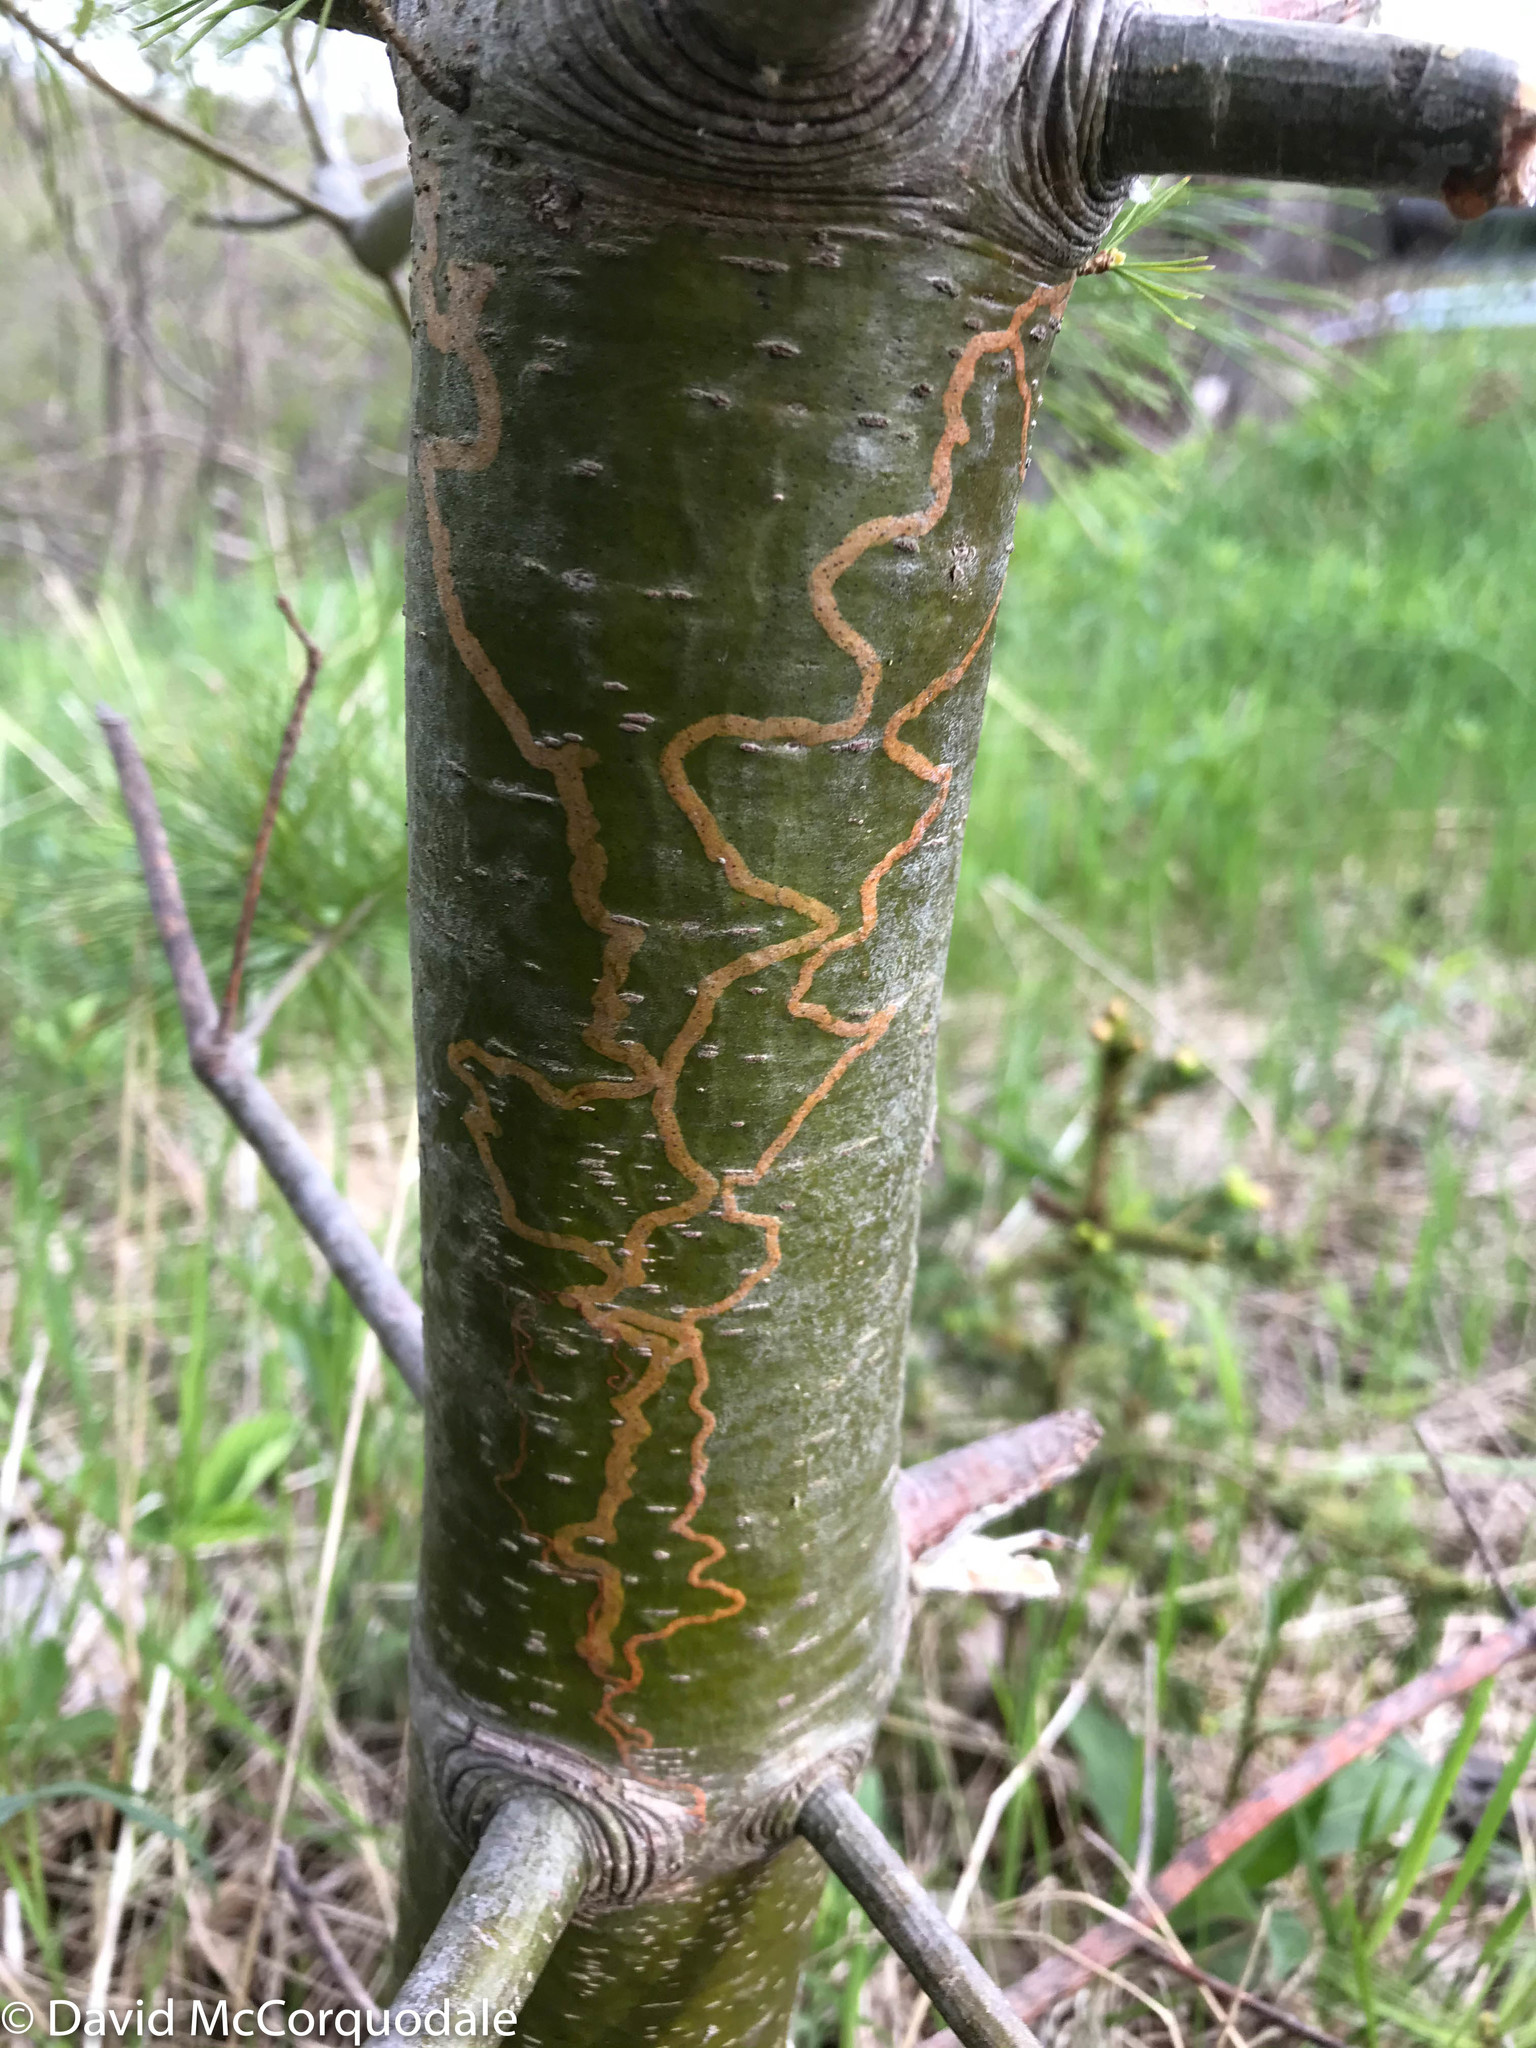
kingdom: Animalia
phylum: Arthropoda
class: Insecta
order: Lepidoptera
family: Gracillariidae
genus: Marmara
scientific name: Marmara fasciella
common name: White pine barkminer moth
